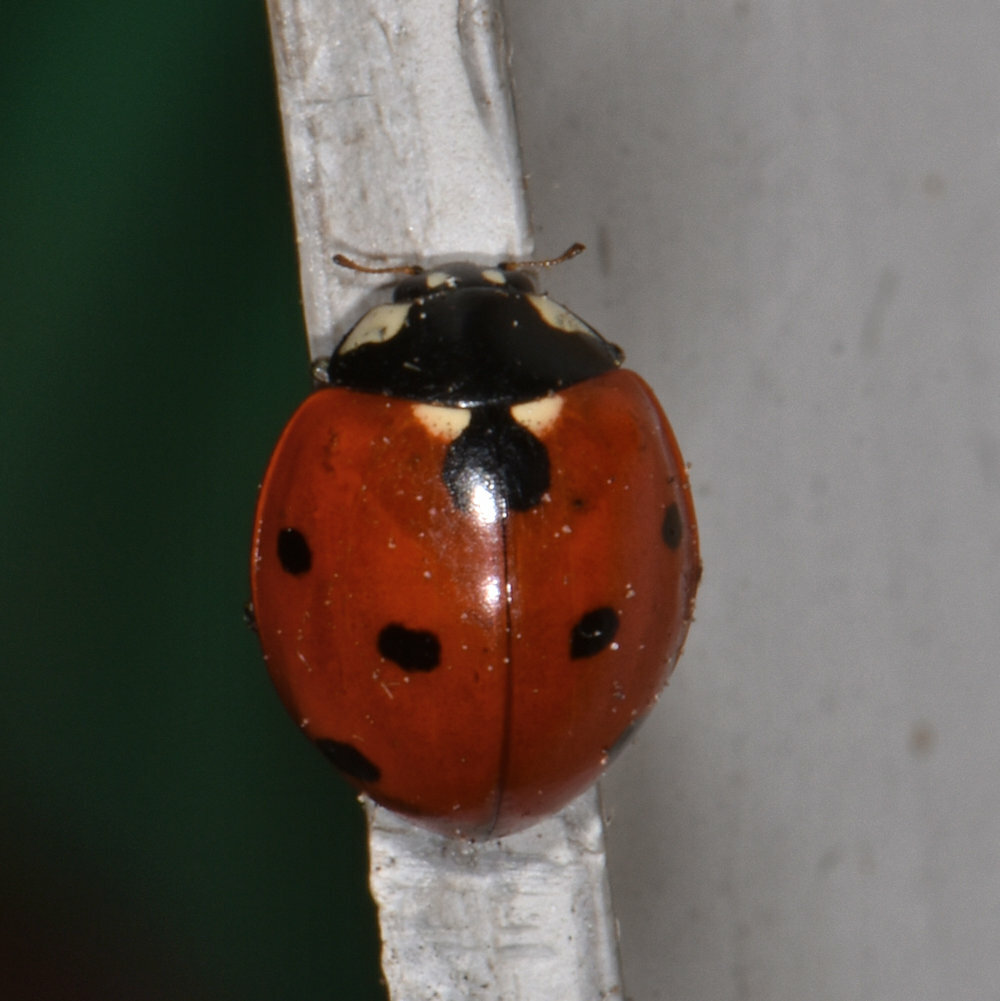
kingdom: Animalia
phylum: Arthropoda
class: Insecta
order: Coleoptera
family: Coccinellidae
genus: Coccinella
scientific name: Coccinella septempunctata
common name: Sevenspotted lady beetle
